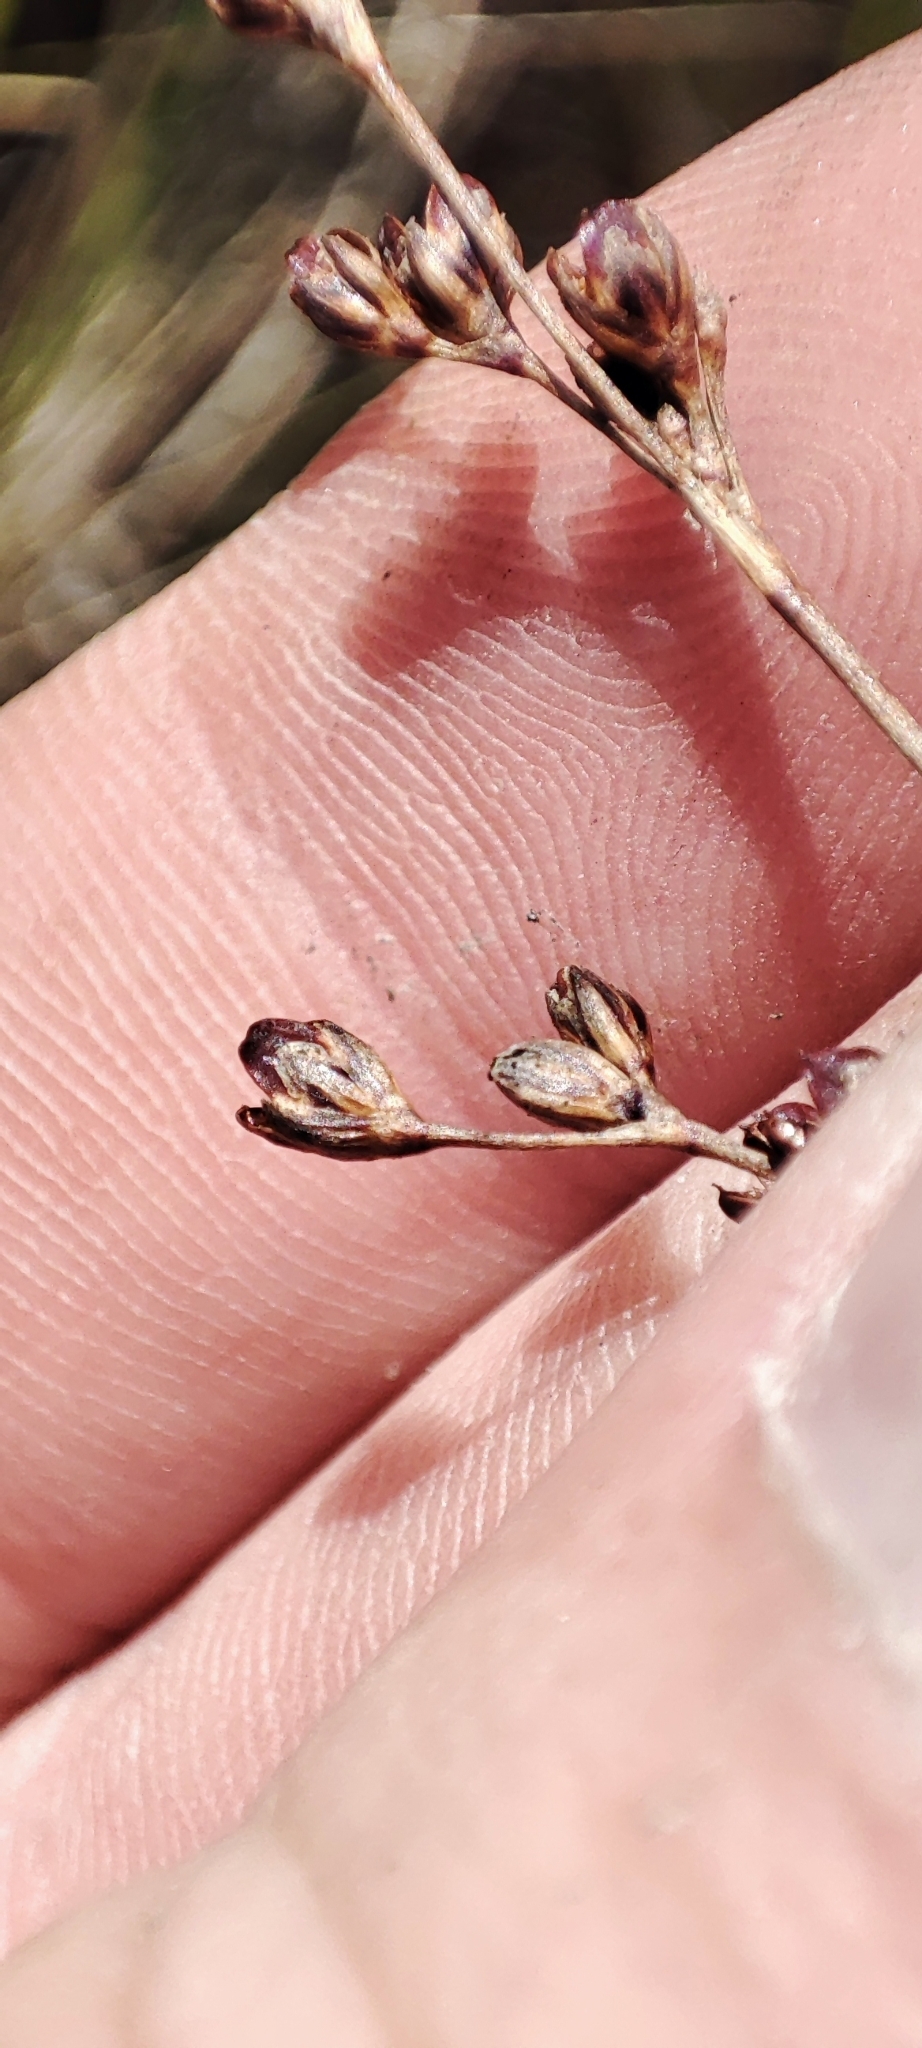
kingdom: Plantae
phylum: Tracheophyta
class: Liliopsida
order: Poales
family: Juncaceae
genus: Juncus
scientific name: Juncus gerardi
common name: Saltmarsh rush
